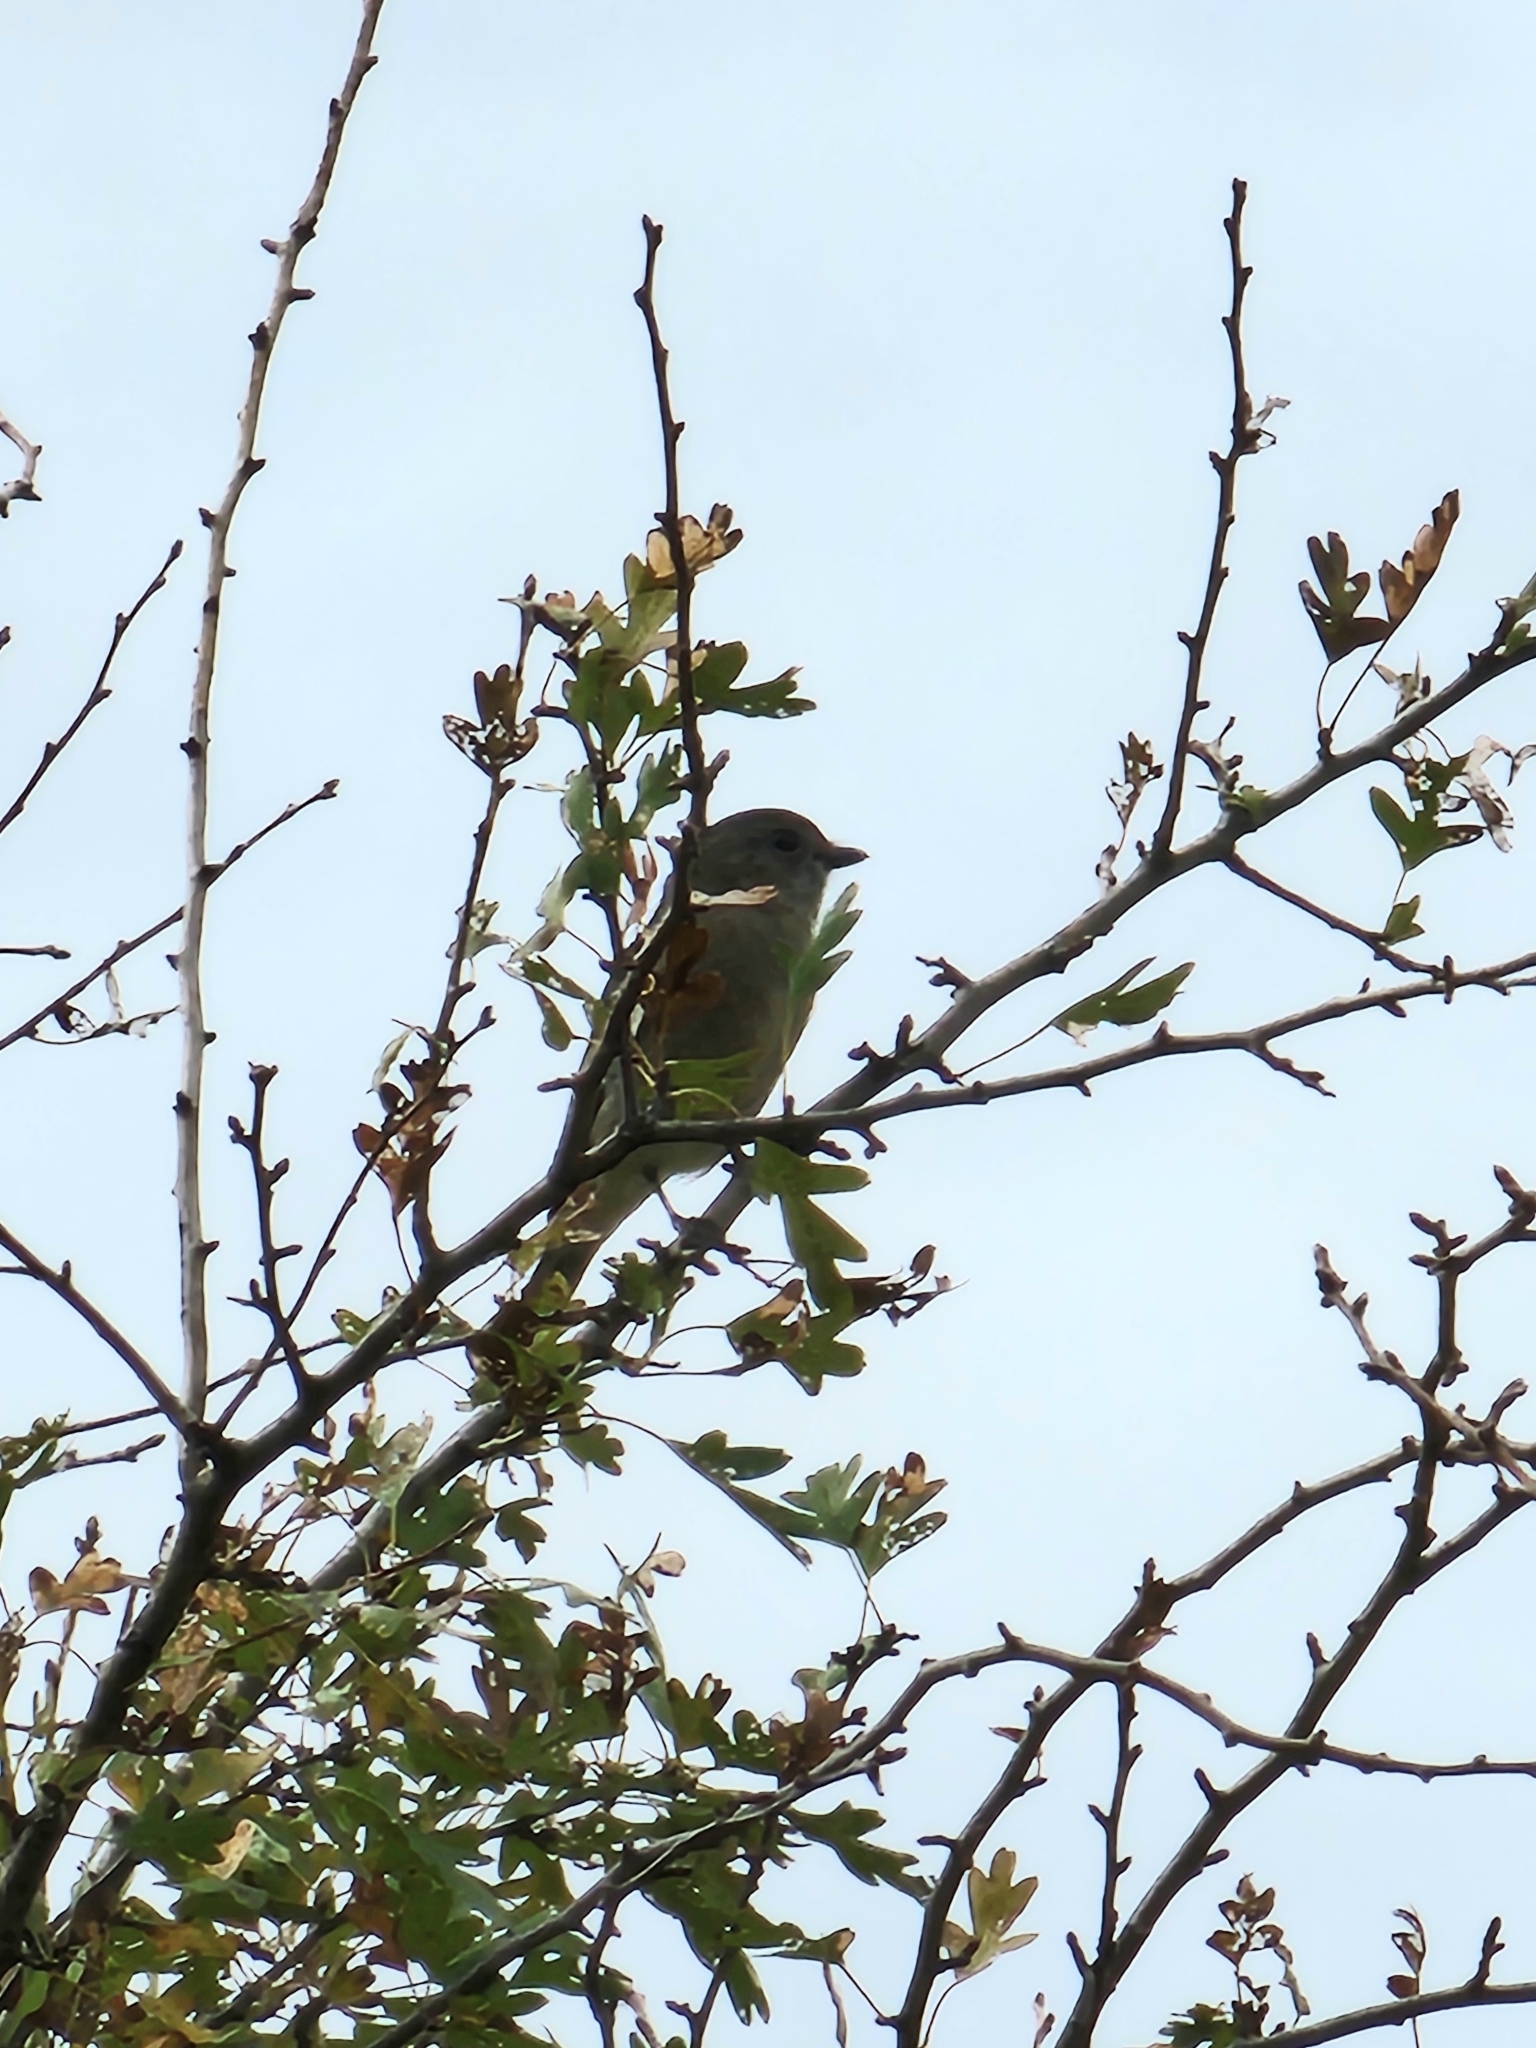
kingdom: Animalia
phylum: Chordata
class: Aves
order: Passeriformes
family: Pachycephalidae
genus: Pachycephala
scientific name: Pachycephala pectoralis
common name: Australian golden whistler
